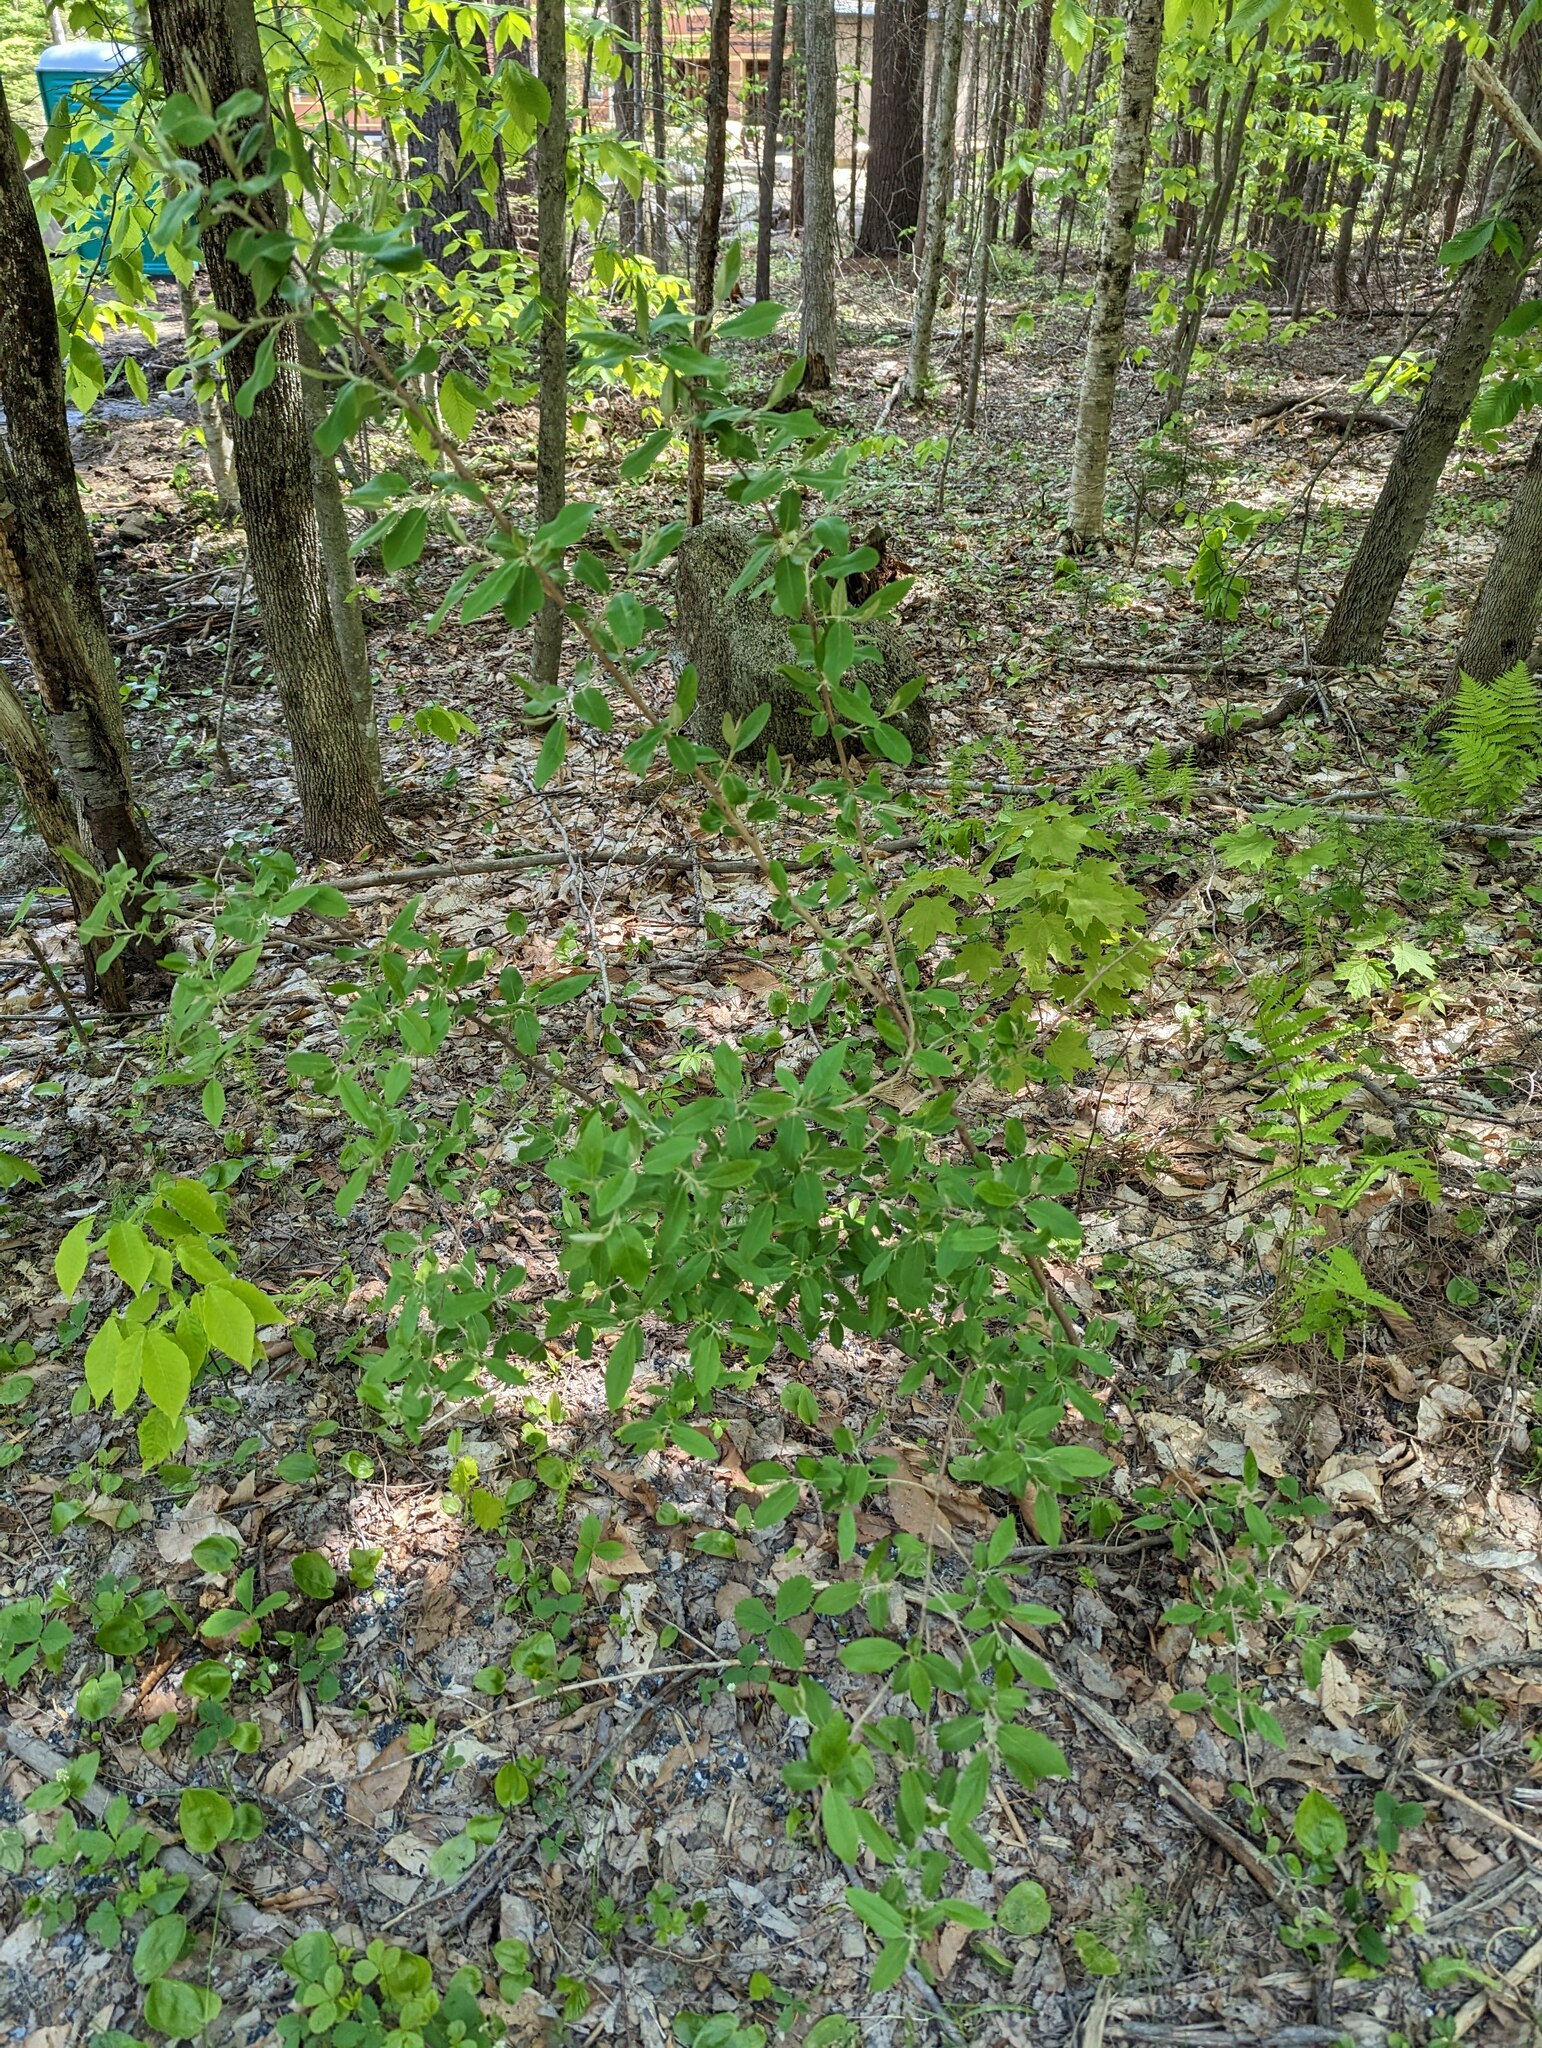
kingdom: Plantae
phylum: Tracheophyta
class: Magnoliopsida
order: Rosales
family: Elaeagnaceae
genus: Elaeagnus
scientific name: Elaeagnus umbellata
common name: Autumn olive
